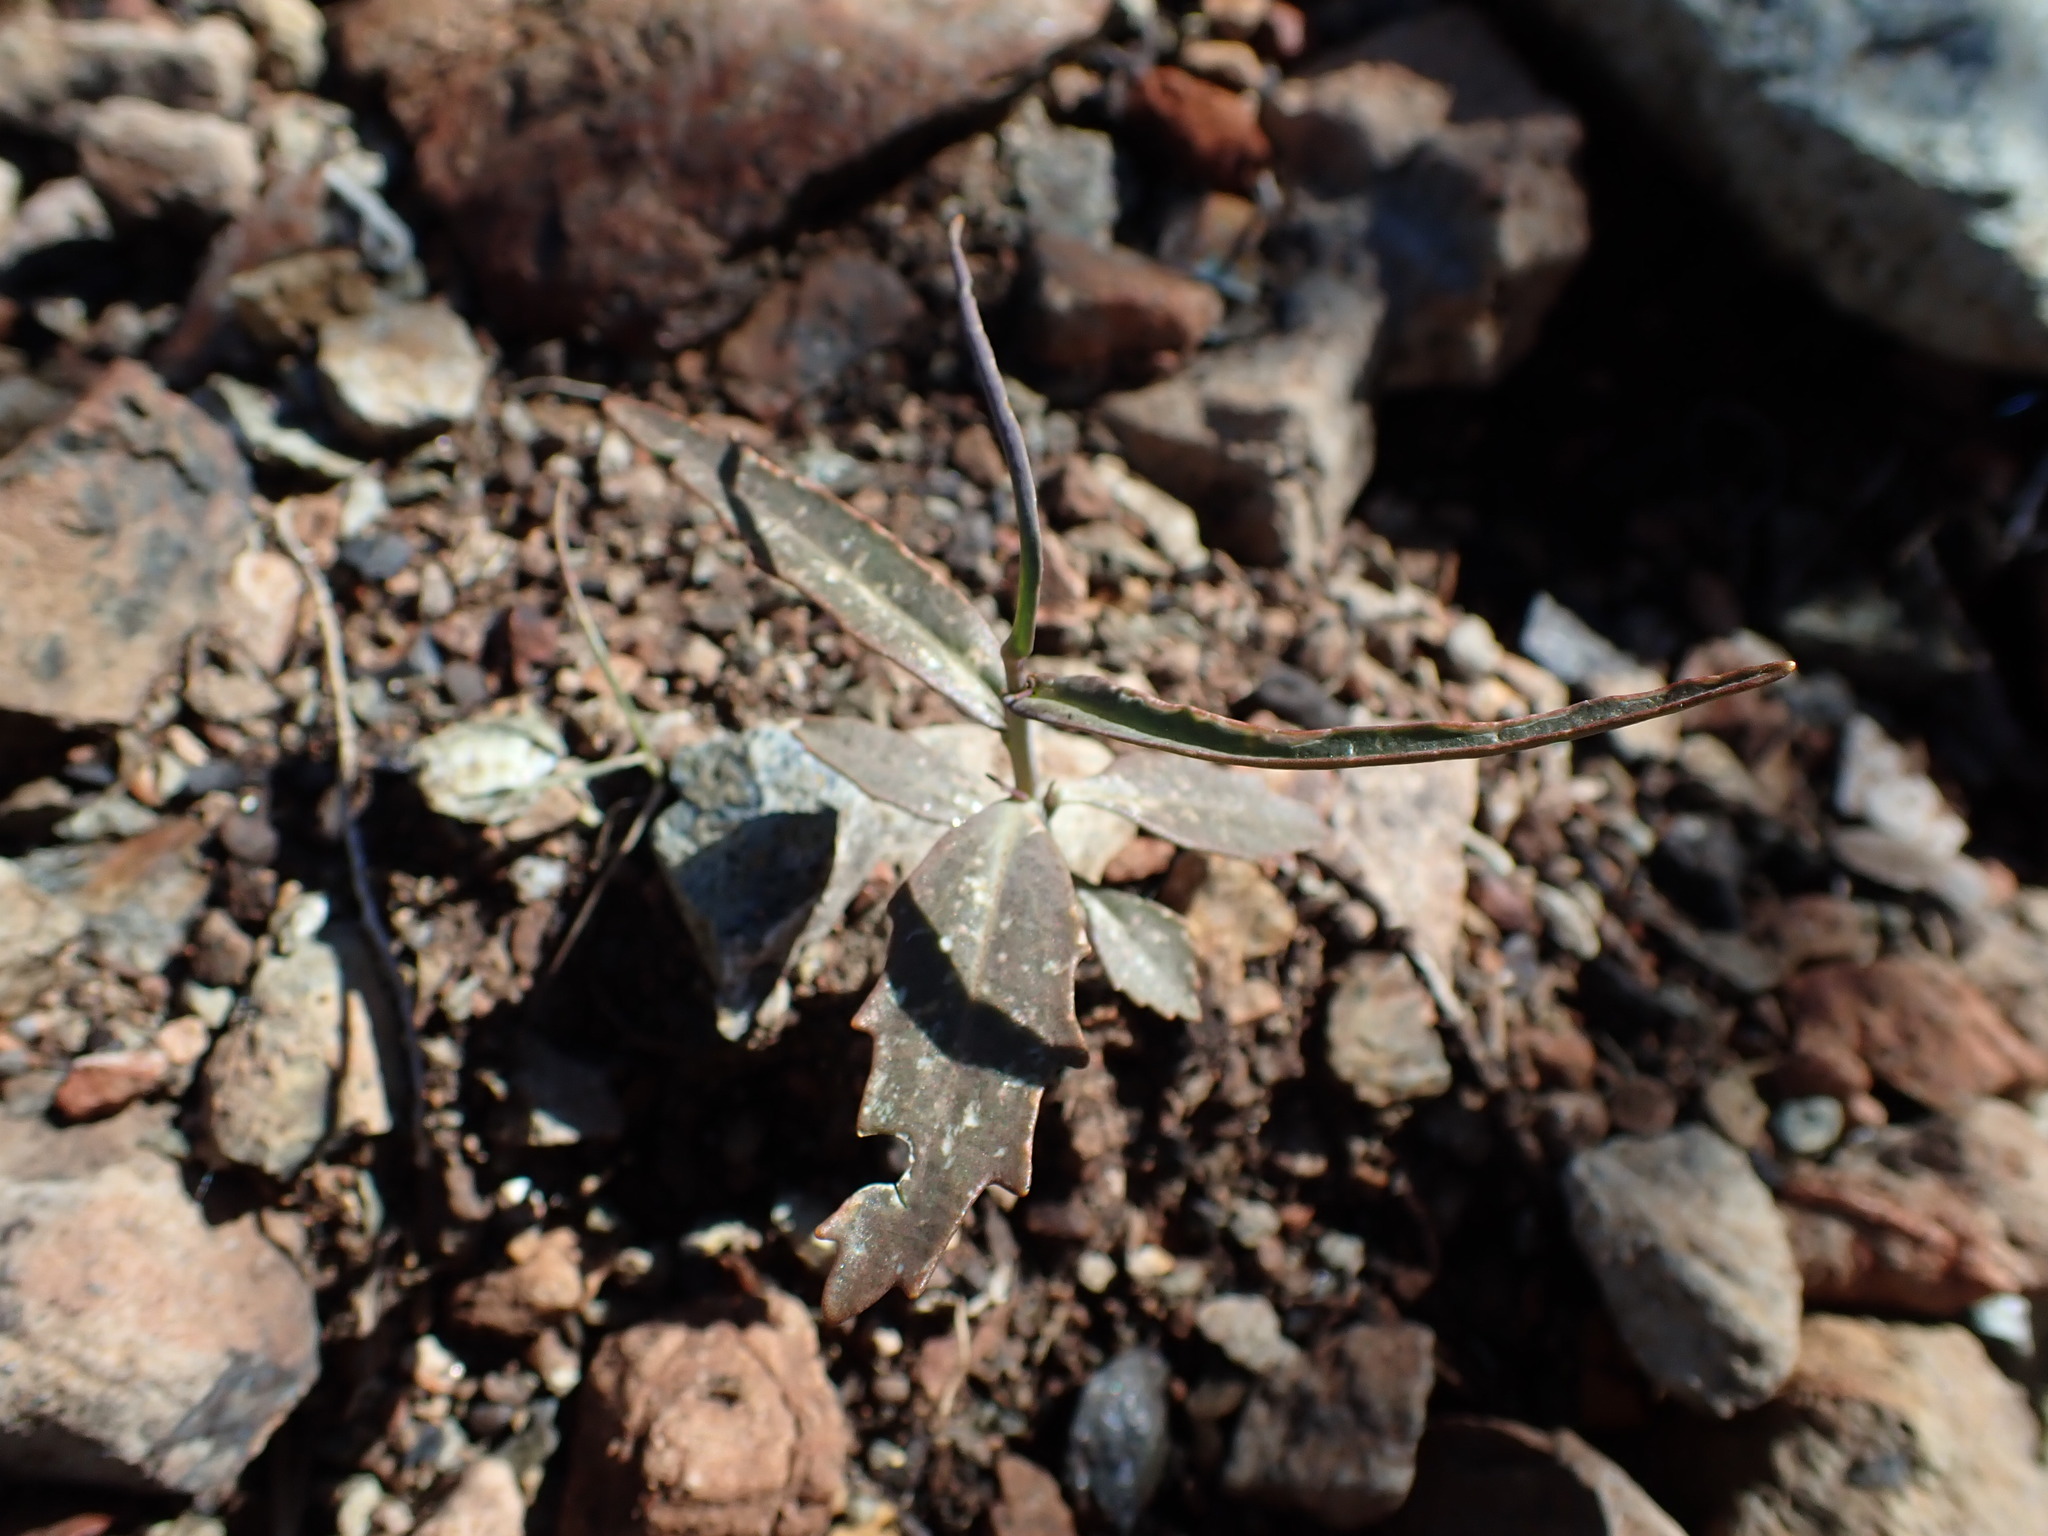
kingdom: Plantae
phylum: Tracheophyta
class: Magnoliopsida
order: Brassicales
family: Brassicaceae
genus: Streptanthus
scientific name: Streptanthus breweri
